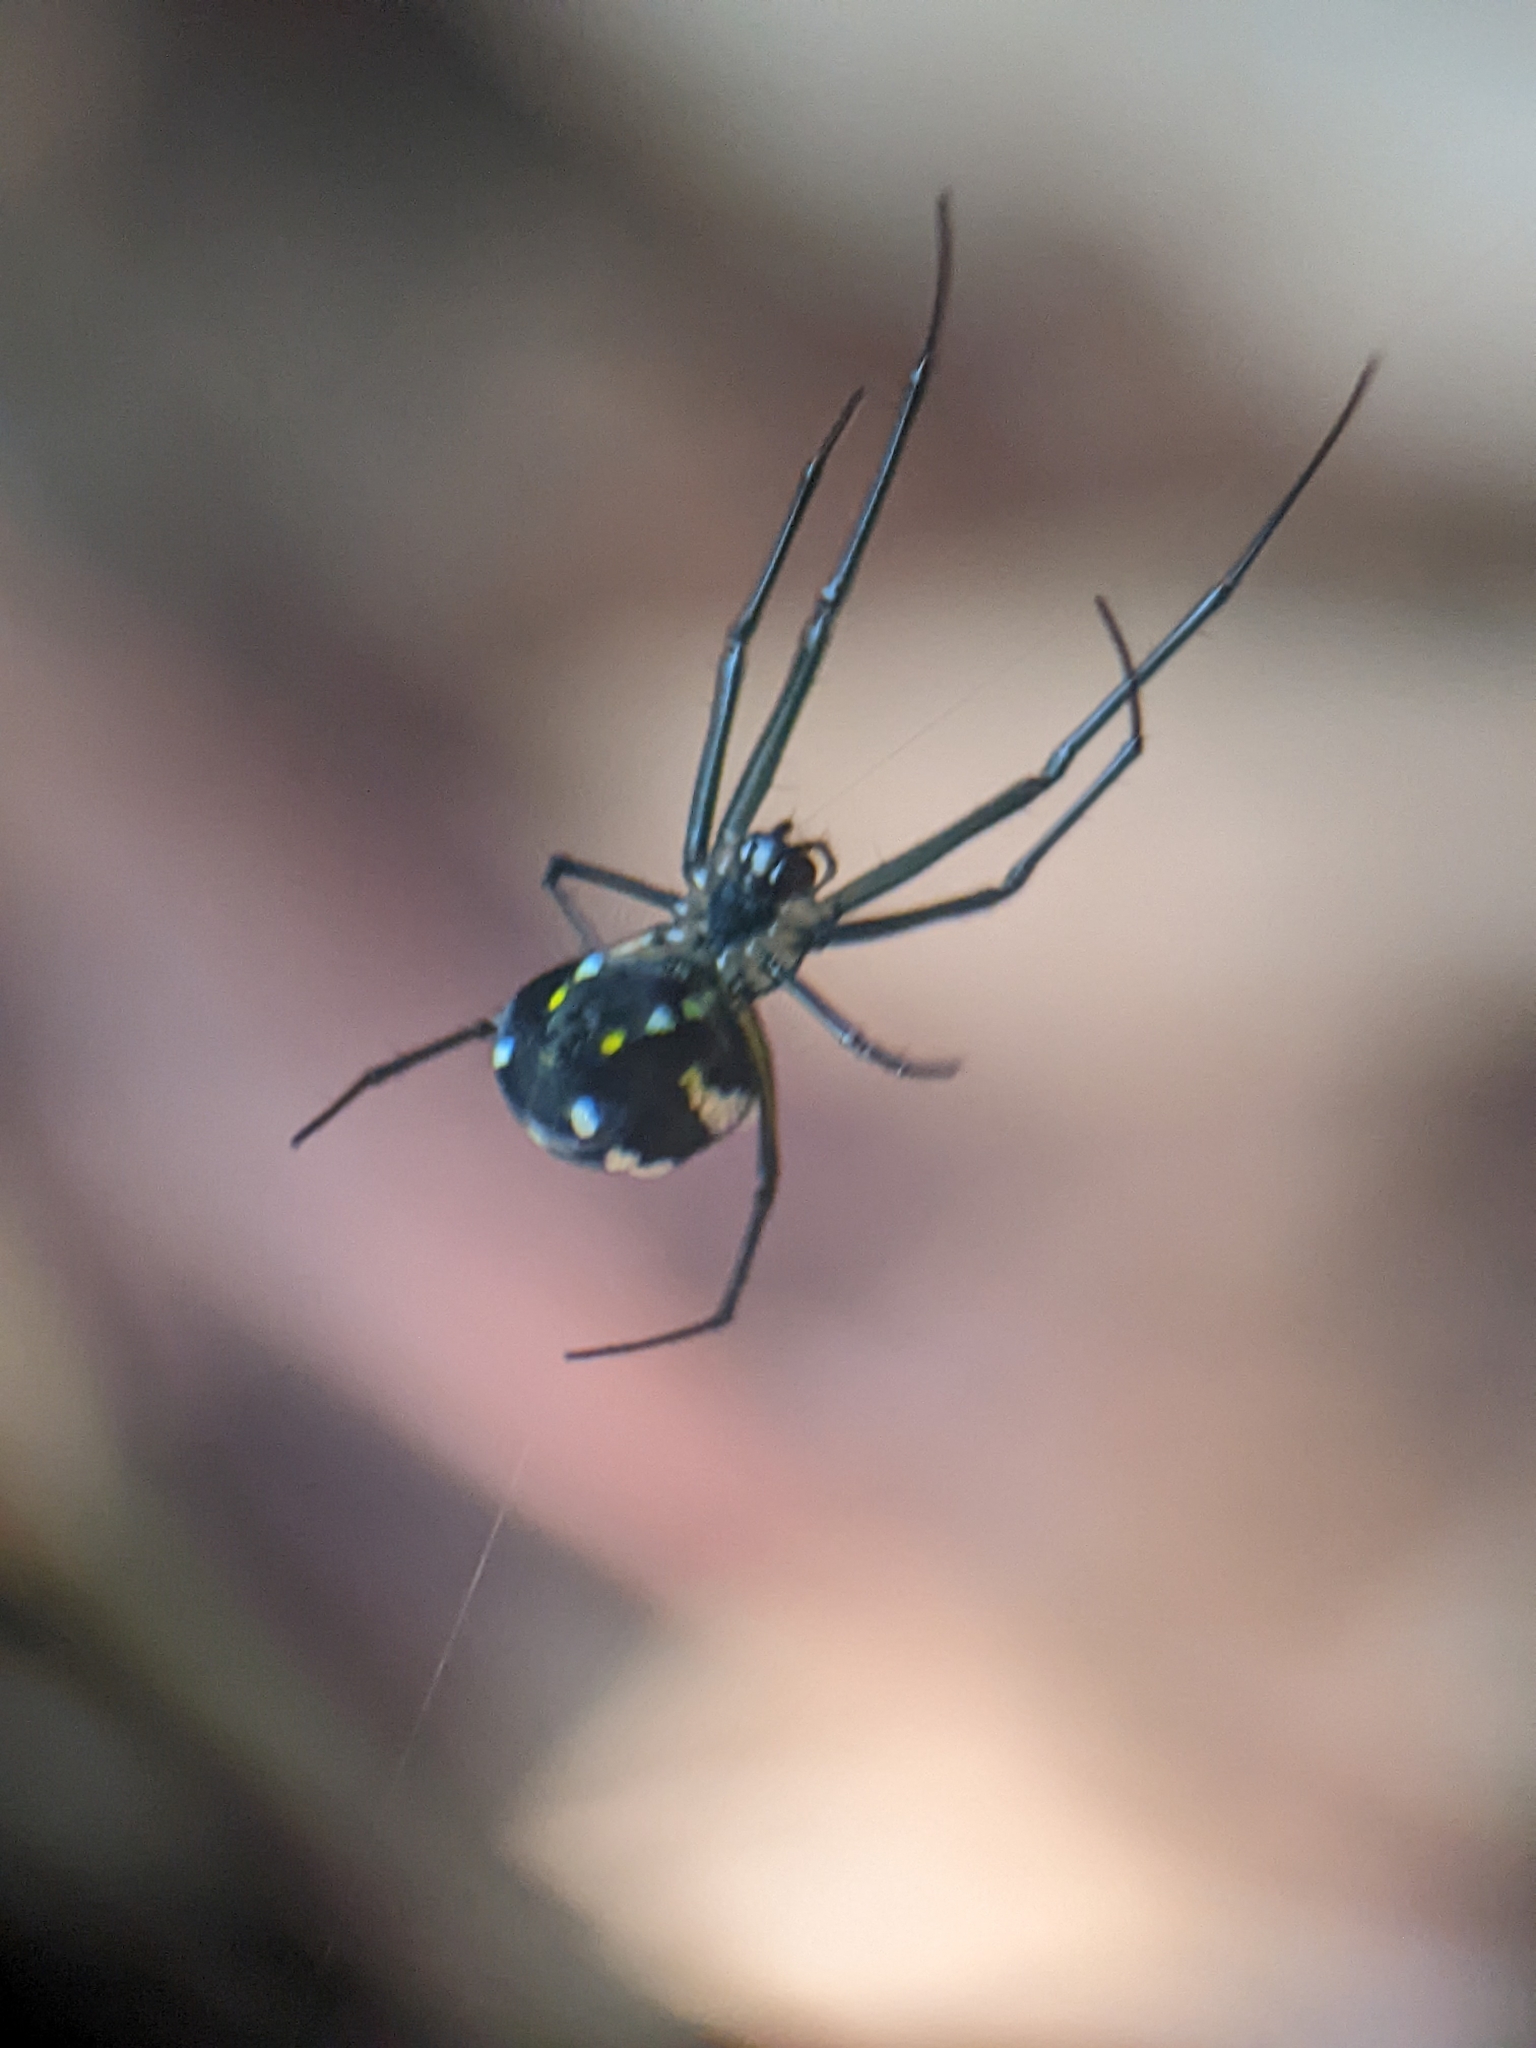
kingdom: Animalia
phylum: Arthropoda
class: Arachnida
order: Araneae
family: Tetragnathidae
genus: Leucauge
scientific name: Leucauge argentina
